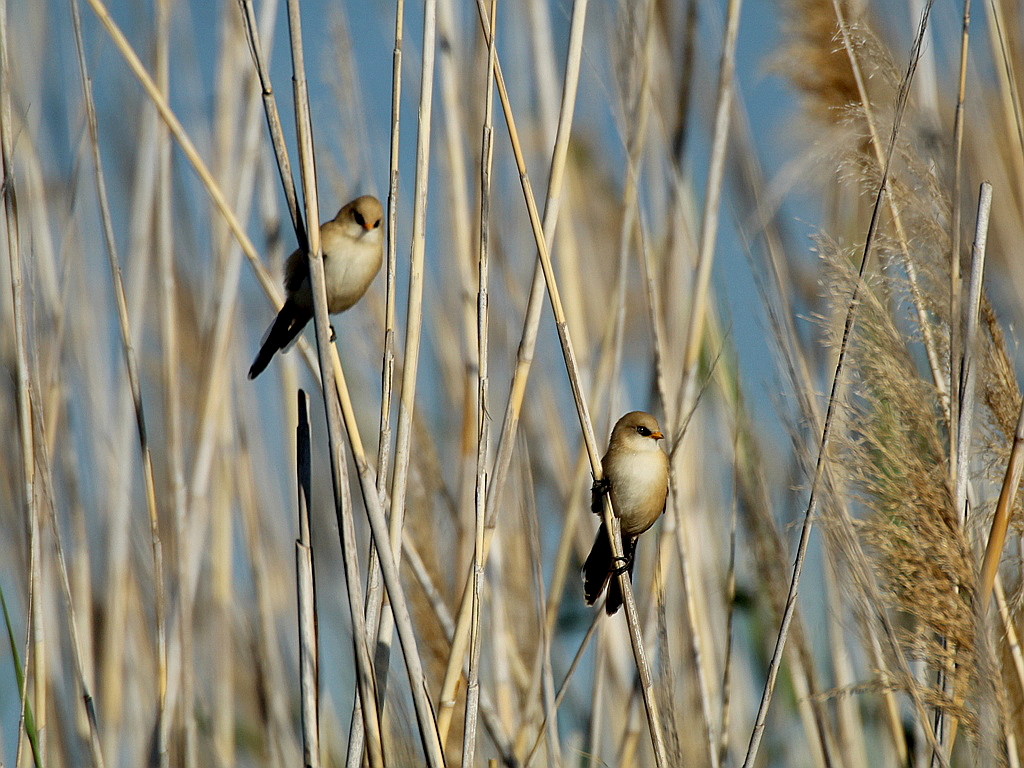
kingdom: Animalia
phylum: Chordata
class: Aves
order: Passeriformes
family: Panuridae
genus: Panurus
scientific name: Panurus biarmicus
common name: Bearded reedling
